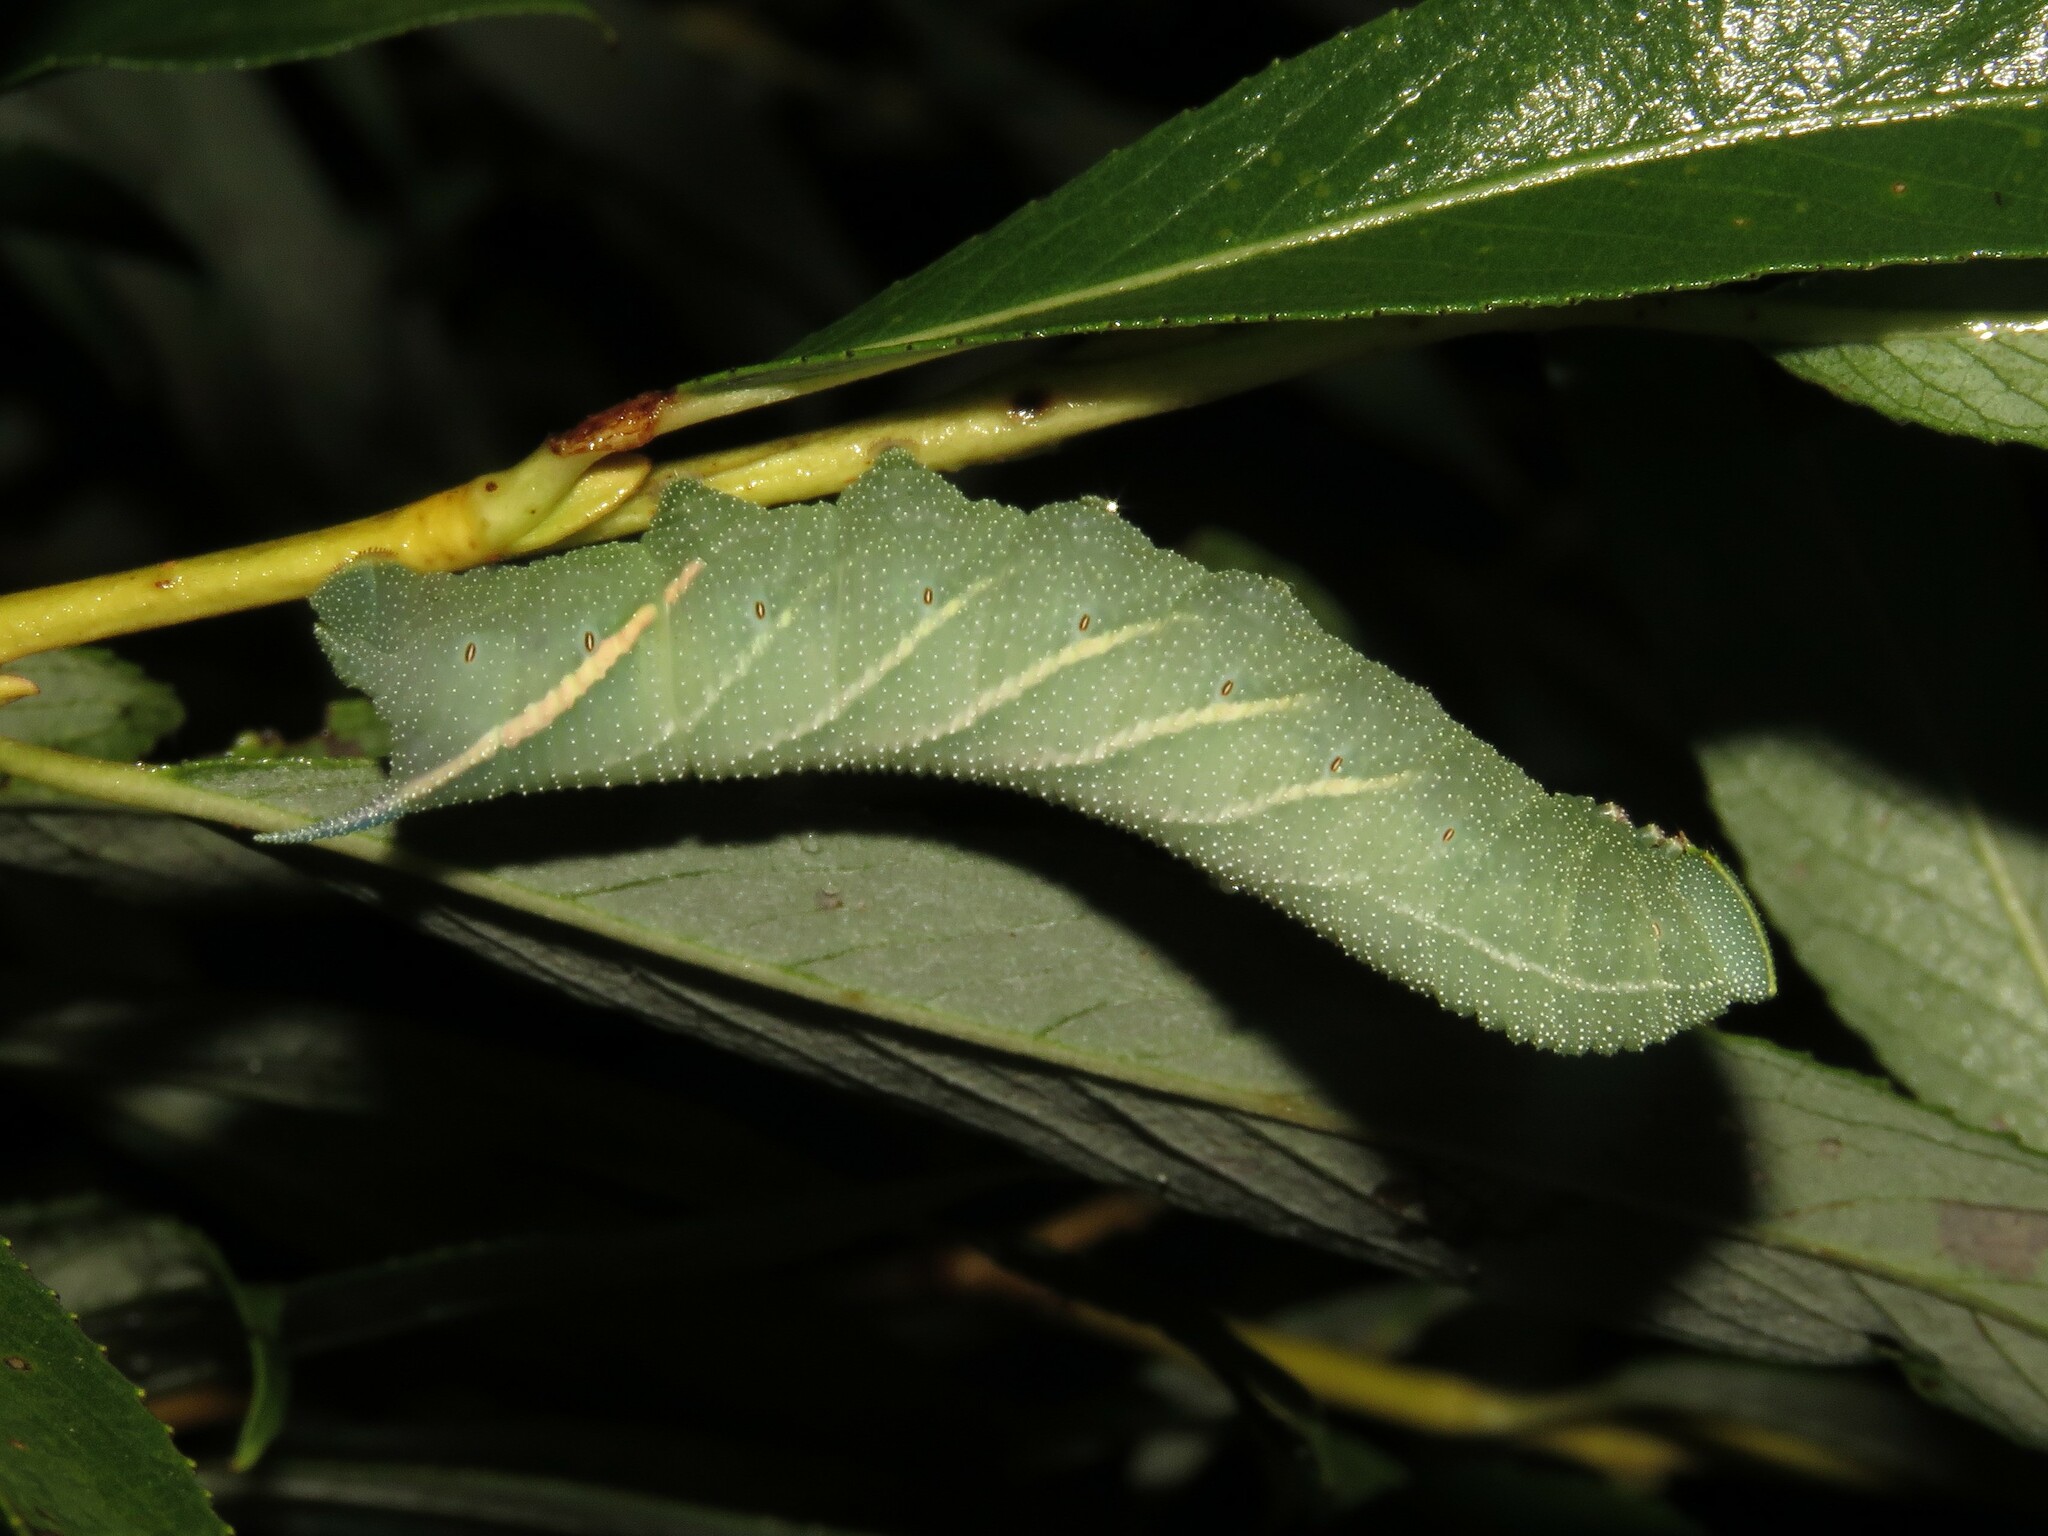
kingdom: Animalia
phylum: Arthropoda
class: Insecta
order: Lepidoptera
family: Sphingidae
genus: Smerinthus
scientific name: Smerinthus jamaicensis
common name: Twin spotted sphinx
